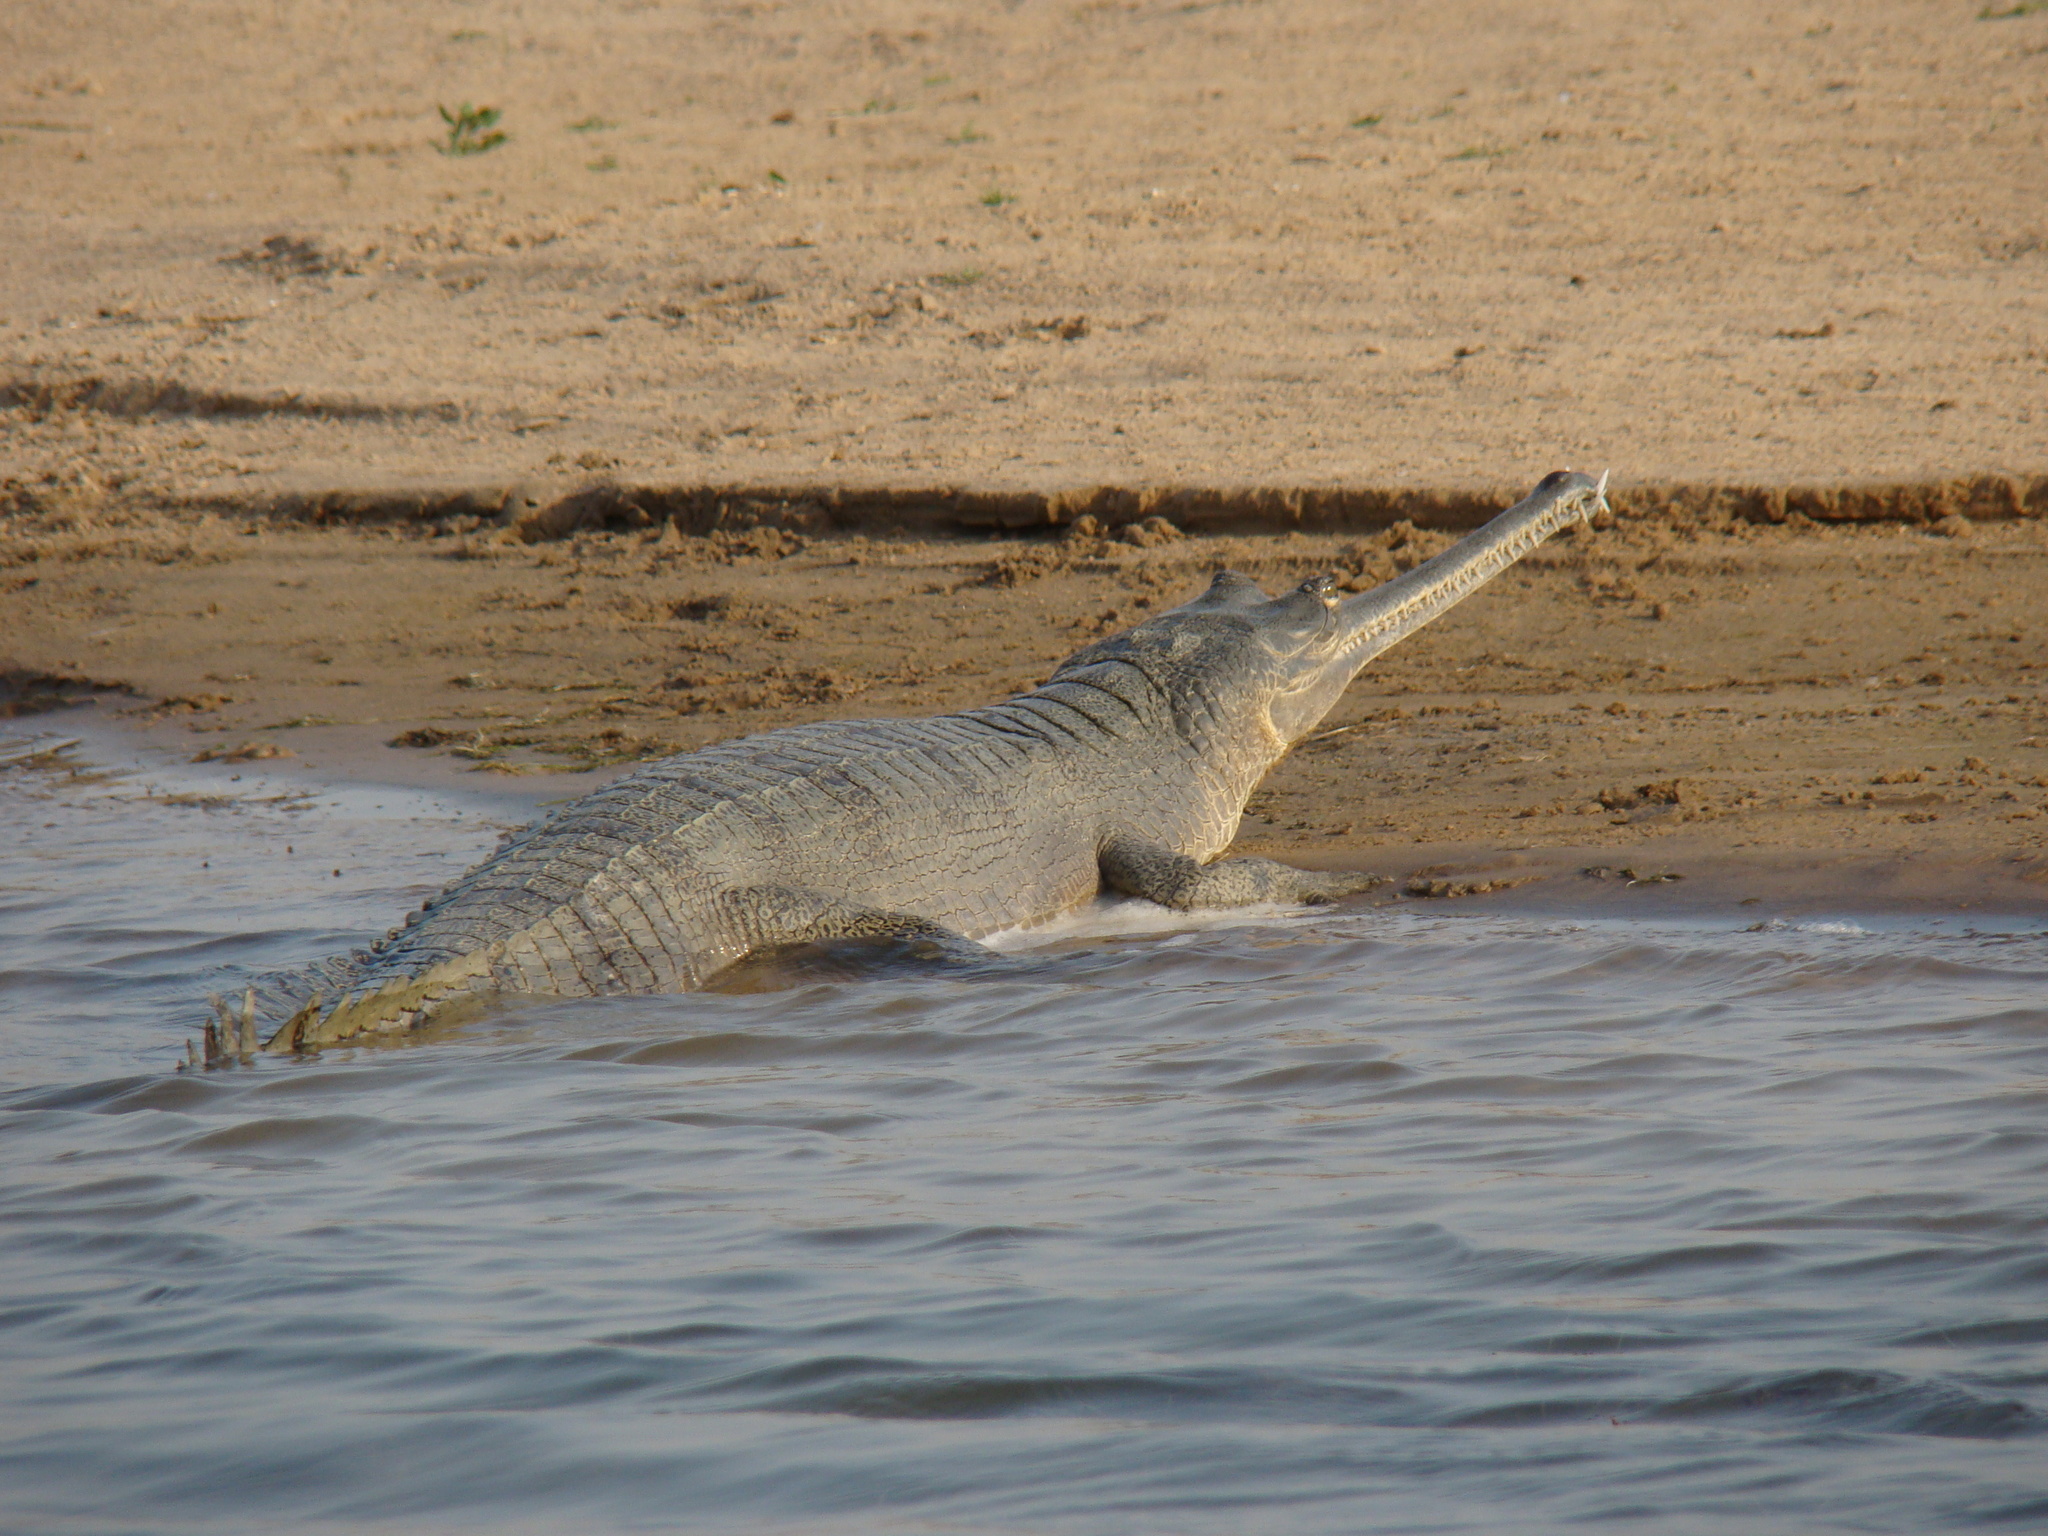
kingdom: Animalia
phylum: Chordata
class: Crocodylia
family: Gavialidae
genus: Gavialis
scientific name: Gavialis gangeticus
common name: Gharial
